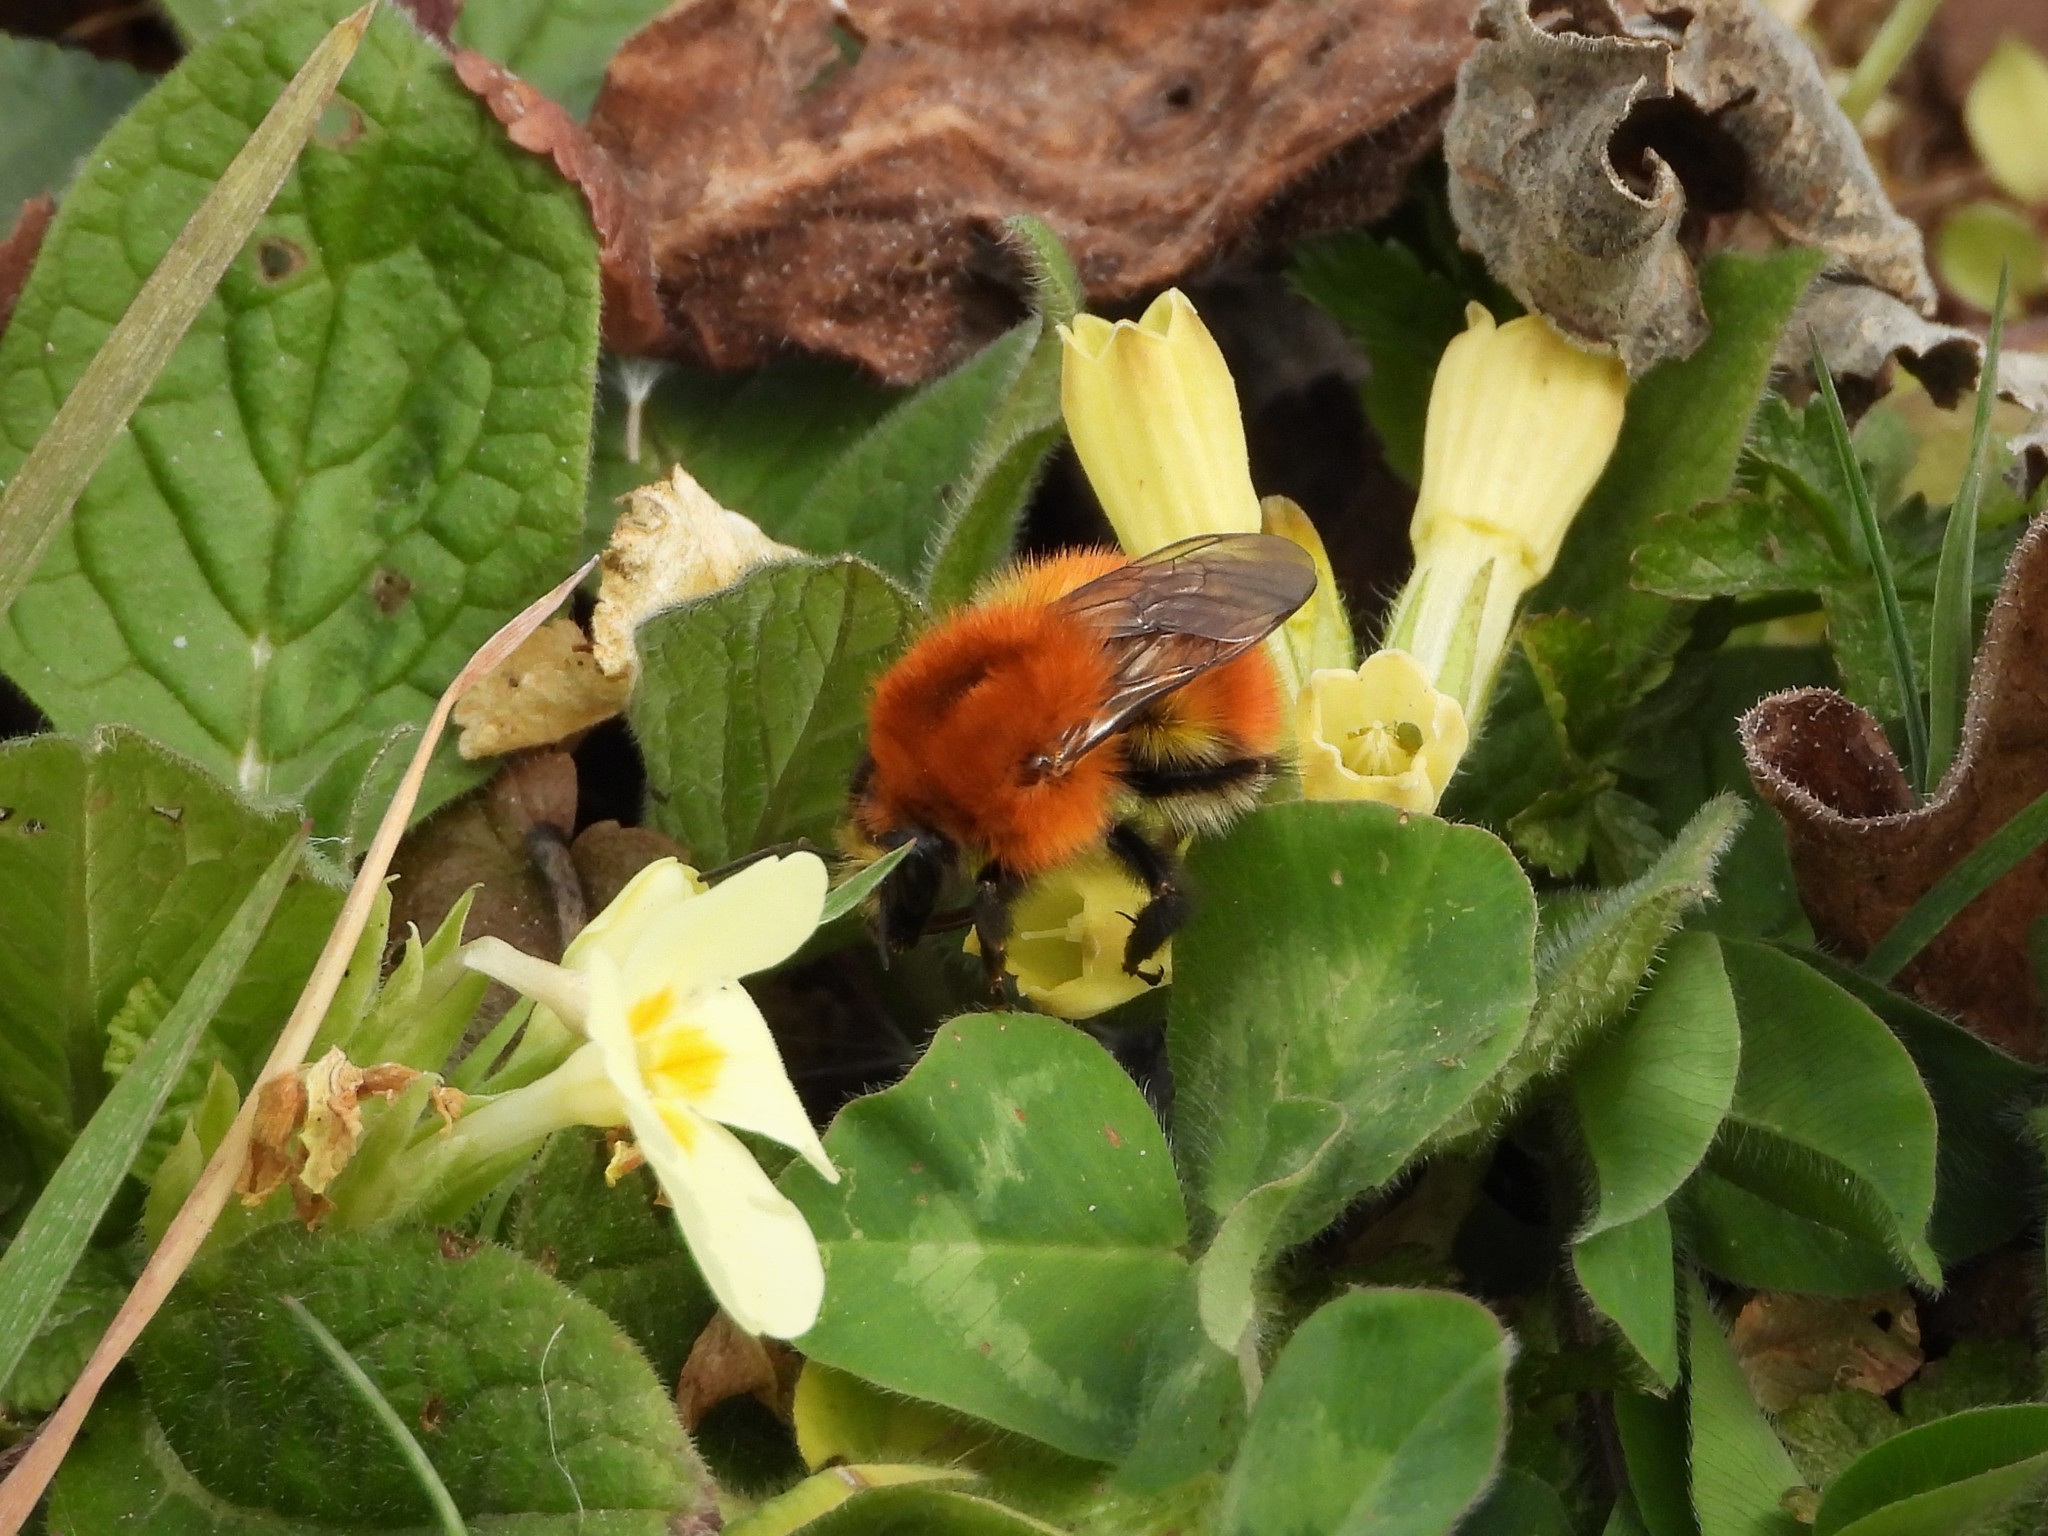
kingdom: Animalia
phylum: Arthropoda
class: Insecta
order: Hymenoptera
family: Apidae
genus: Bombus
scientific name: Bombus pascuorum
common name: Common carder bee
